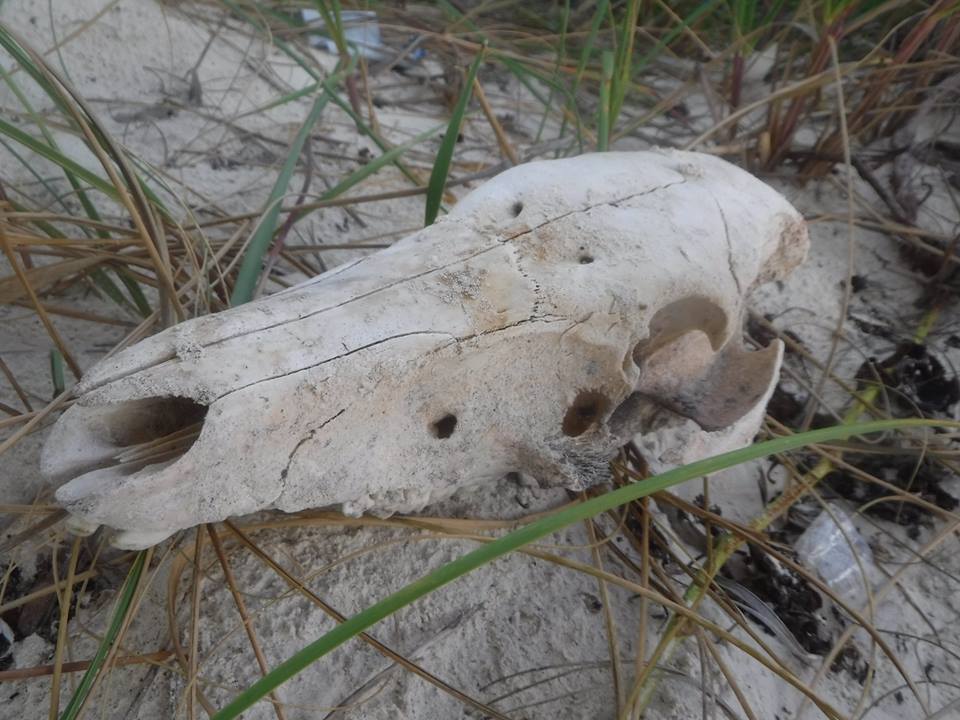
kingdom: Animalia
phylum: Chordata
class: Mammalia
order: Artiodactyla
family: Suidae
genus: Sus
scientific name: Sus scrofa
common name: Wild boar
